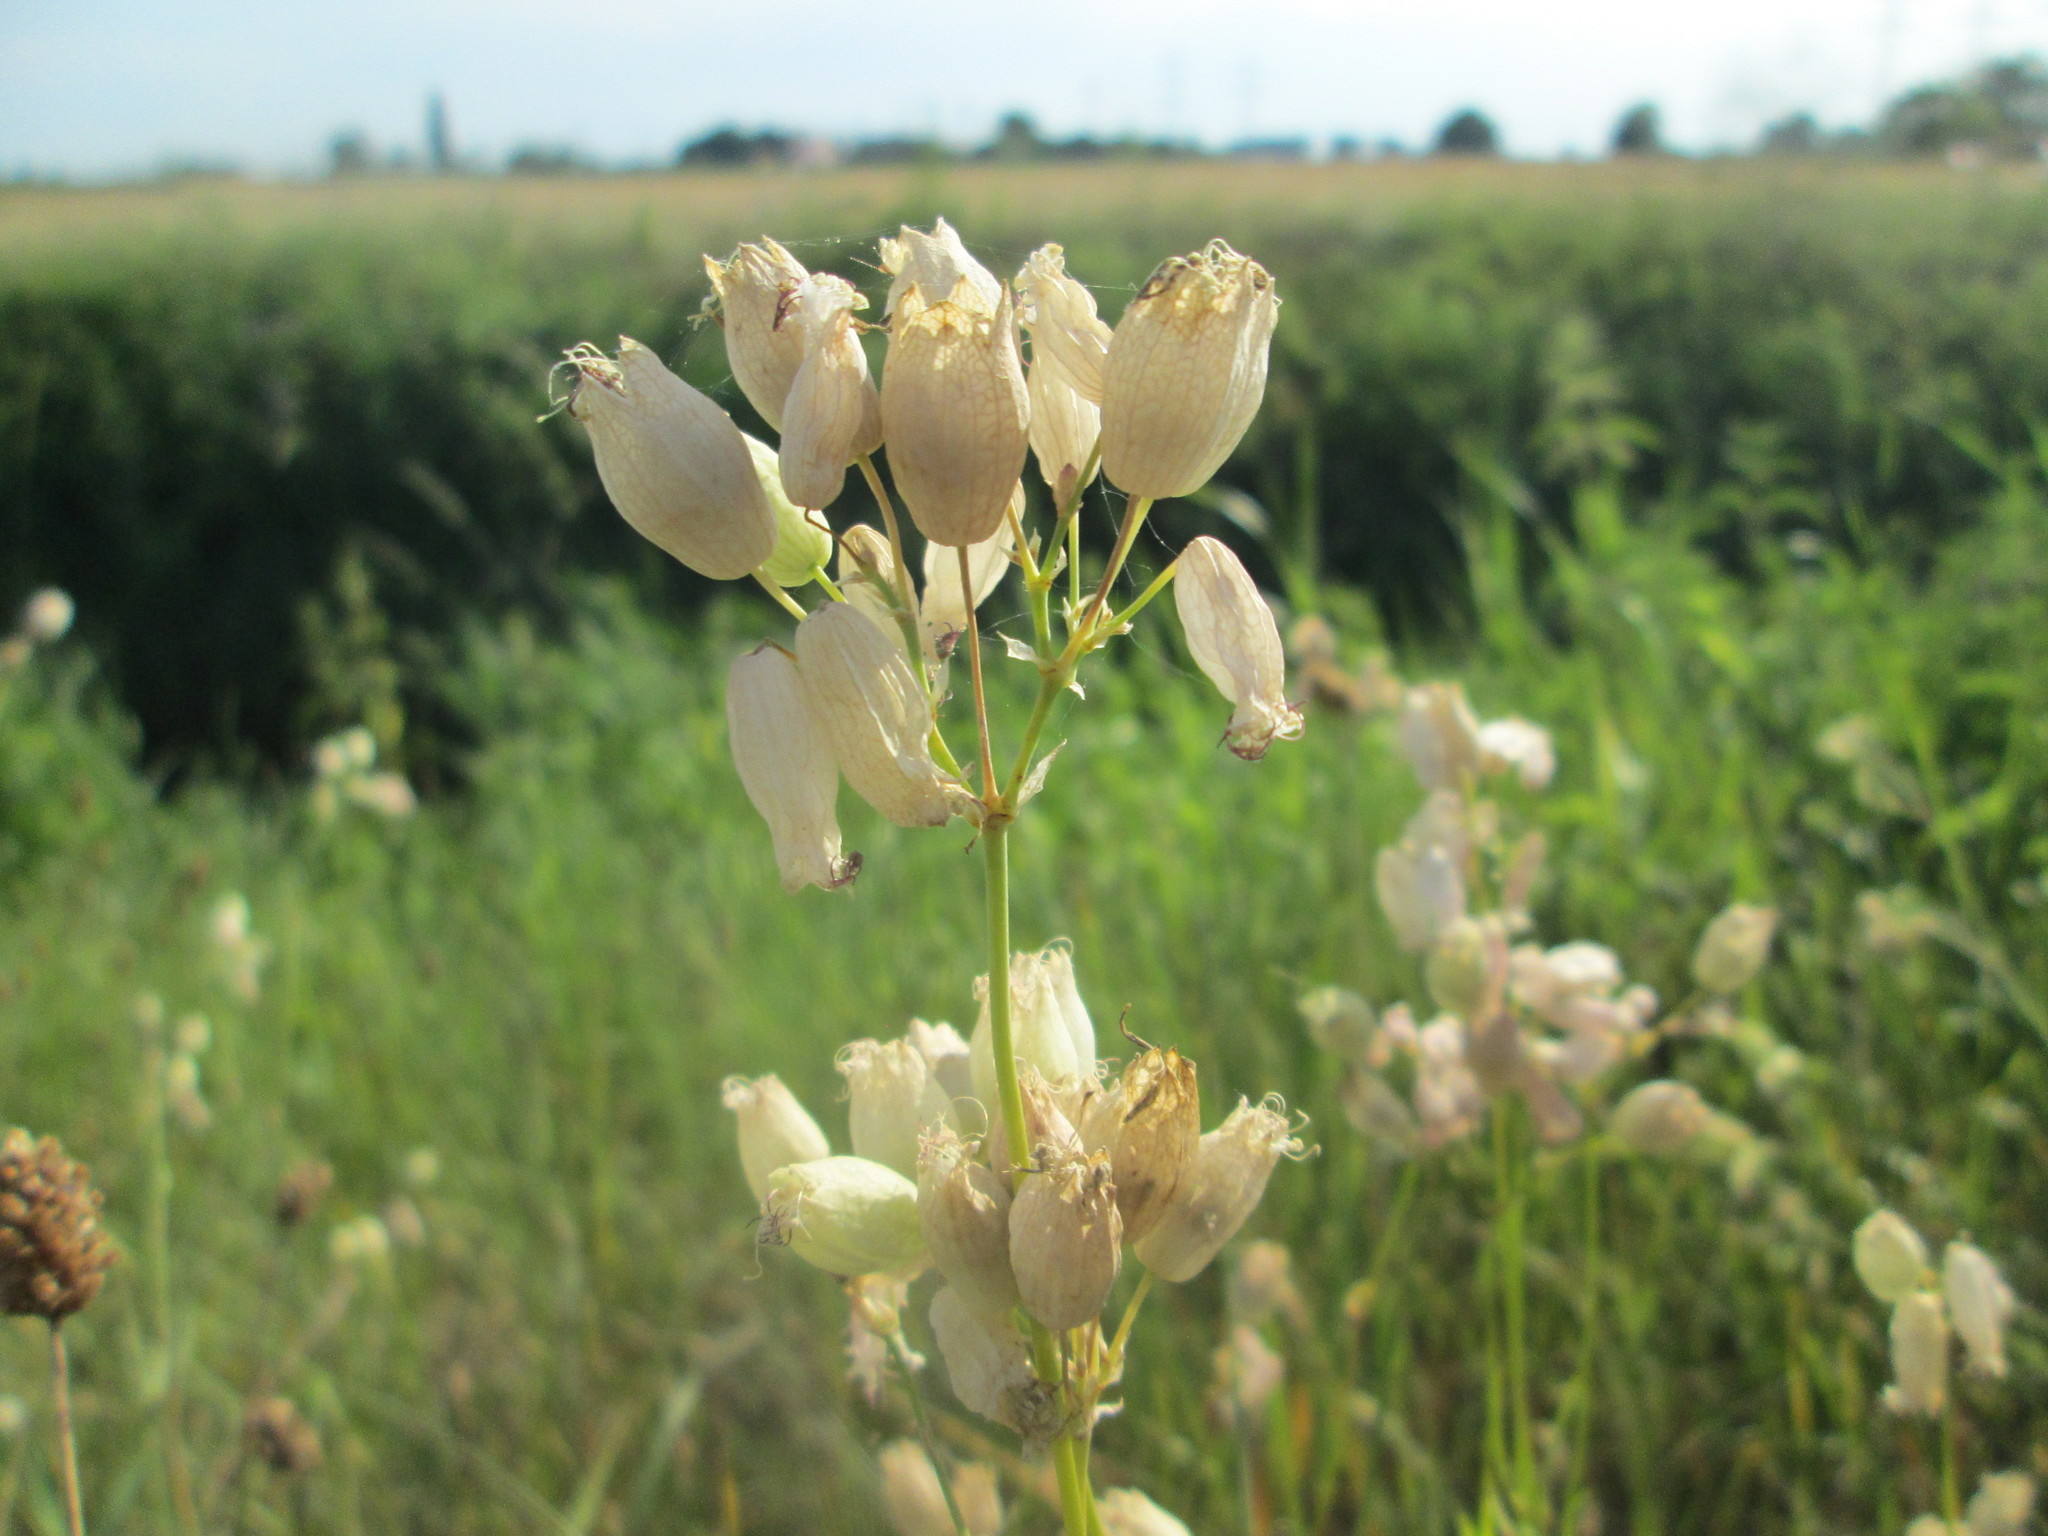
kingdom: Plantae
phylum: Tracheophyta
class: Magnoliopsida
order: Caryophyllales
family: Caryophyllaceae
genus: Silene
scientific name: Silene vulgaris
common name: Bladder campion
